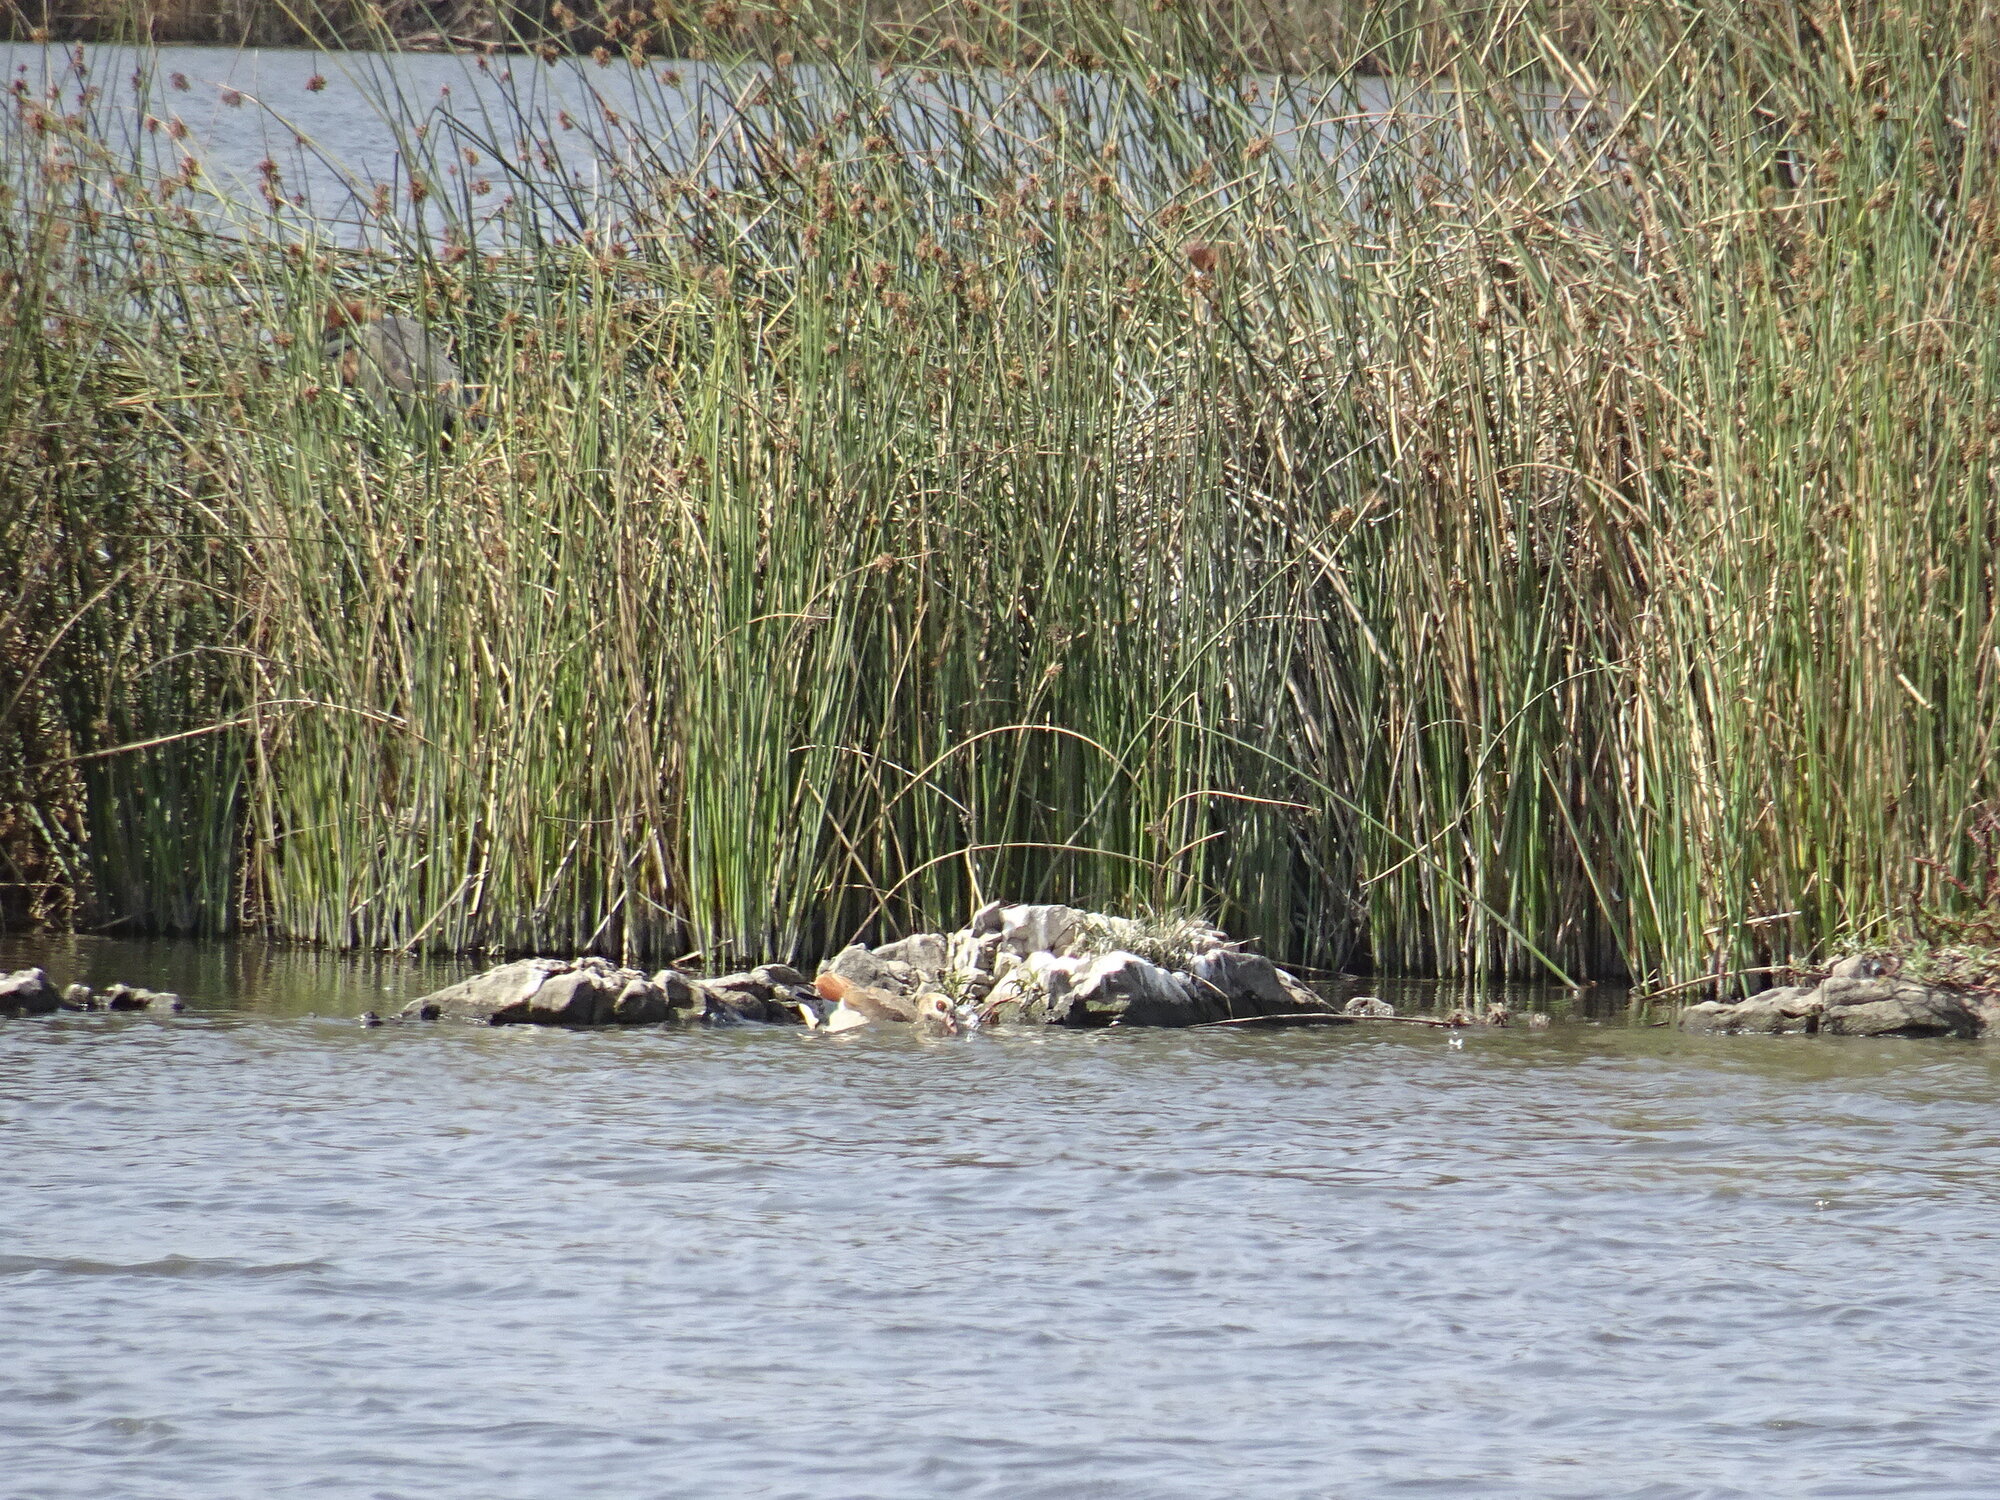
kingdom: Animalia
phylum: Chordata
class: Aves
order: Anseriformes
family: Anatidae
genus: Alopochen
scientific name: Alopochen aegyptiaca
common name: Egyptian goose
